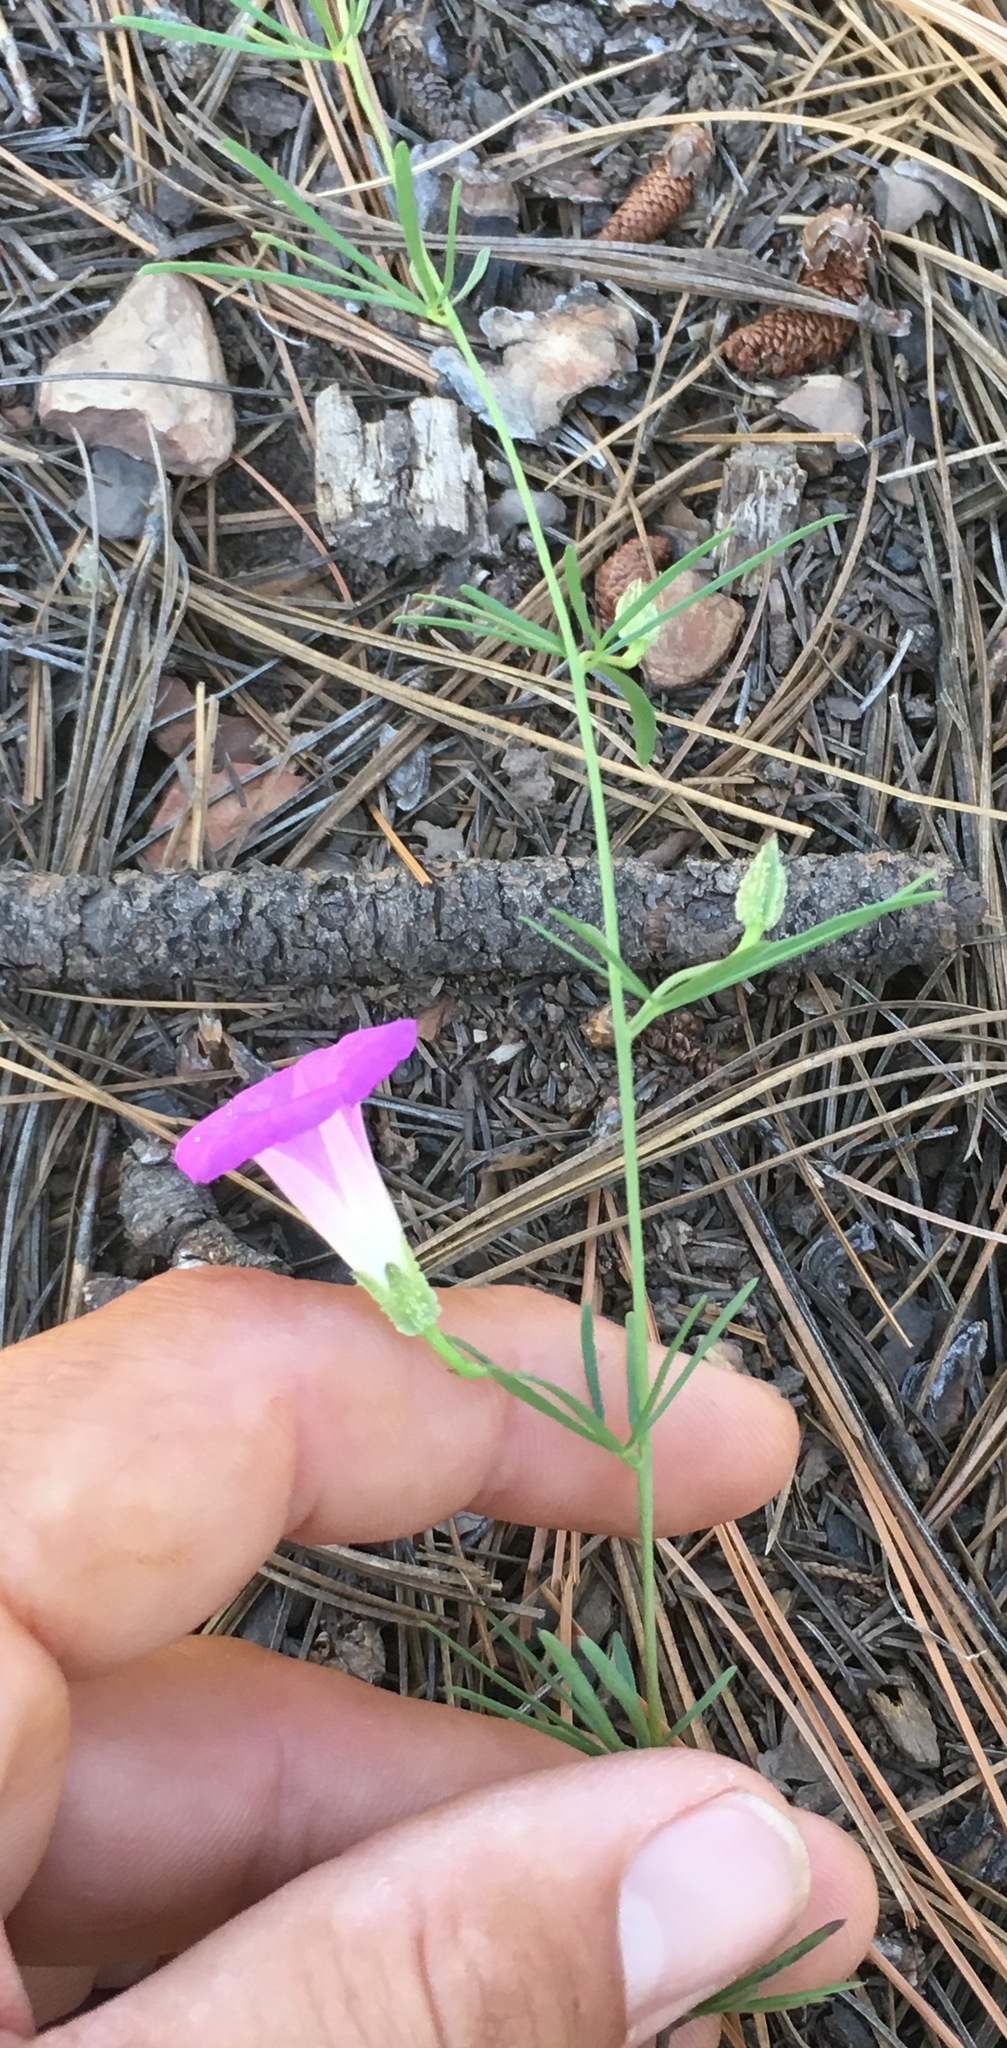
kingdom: Plantae
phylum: Tracheophyta
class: Magnoliopsida
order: Solanales
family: Convolvulaceae
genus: Ipomoea
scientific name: Ipomoea plummerae
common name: Plummer's morning-glory
